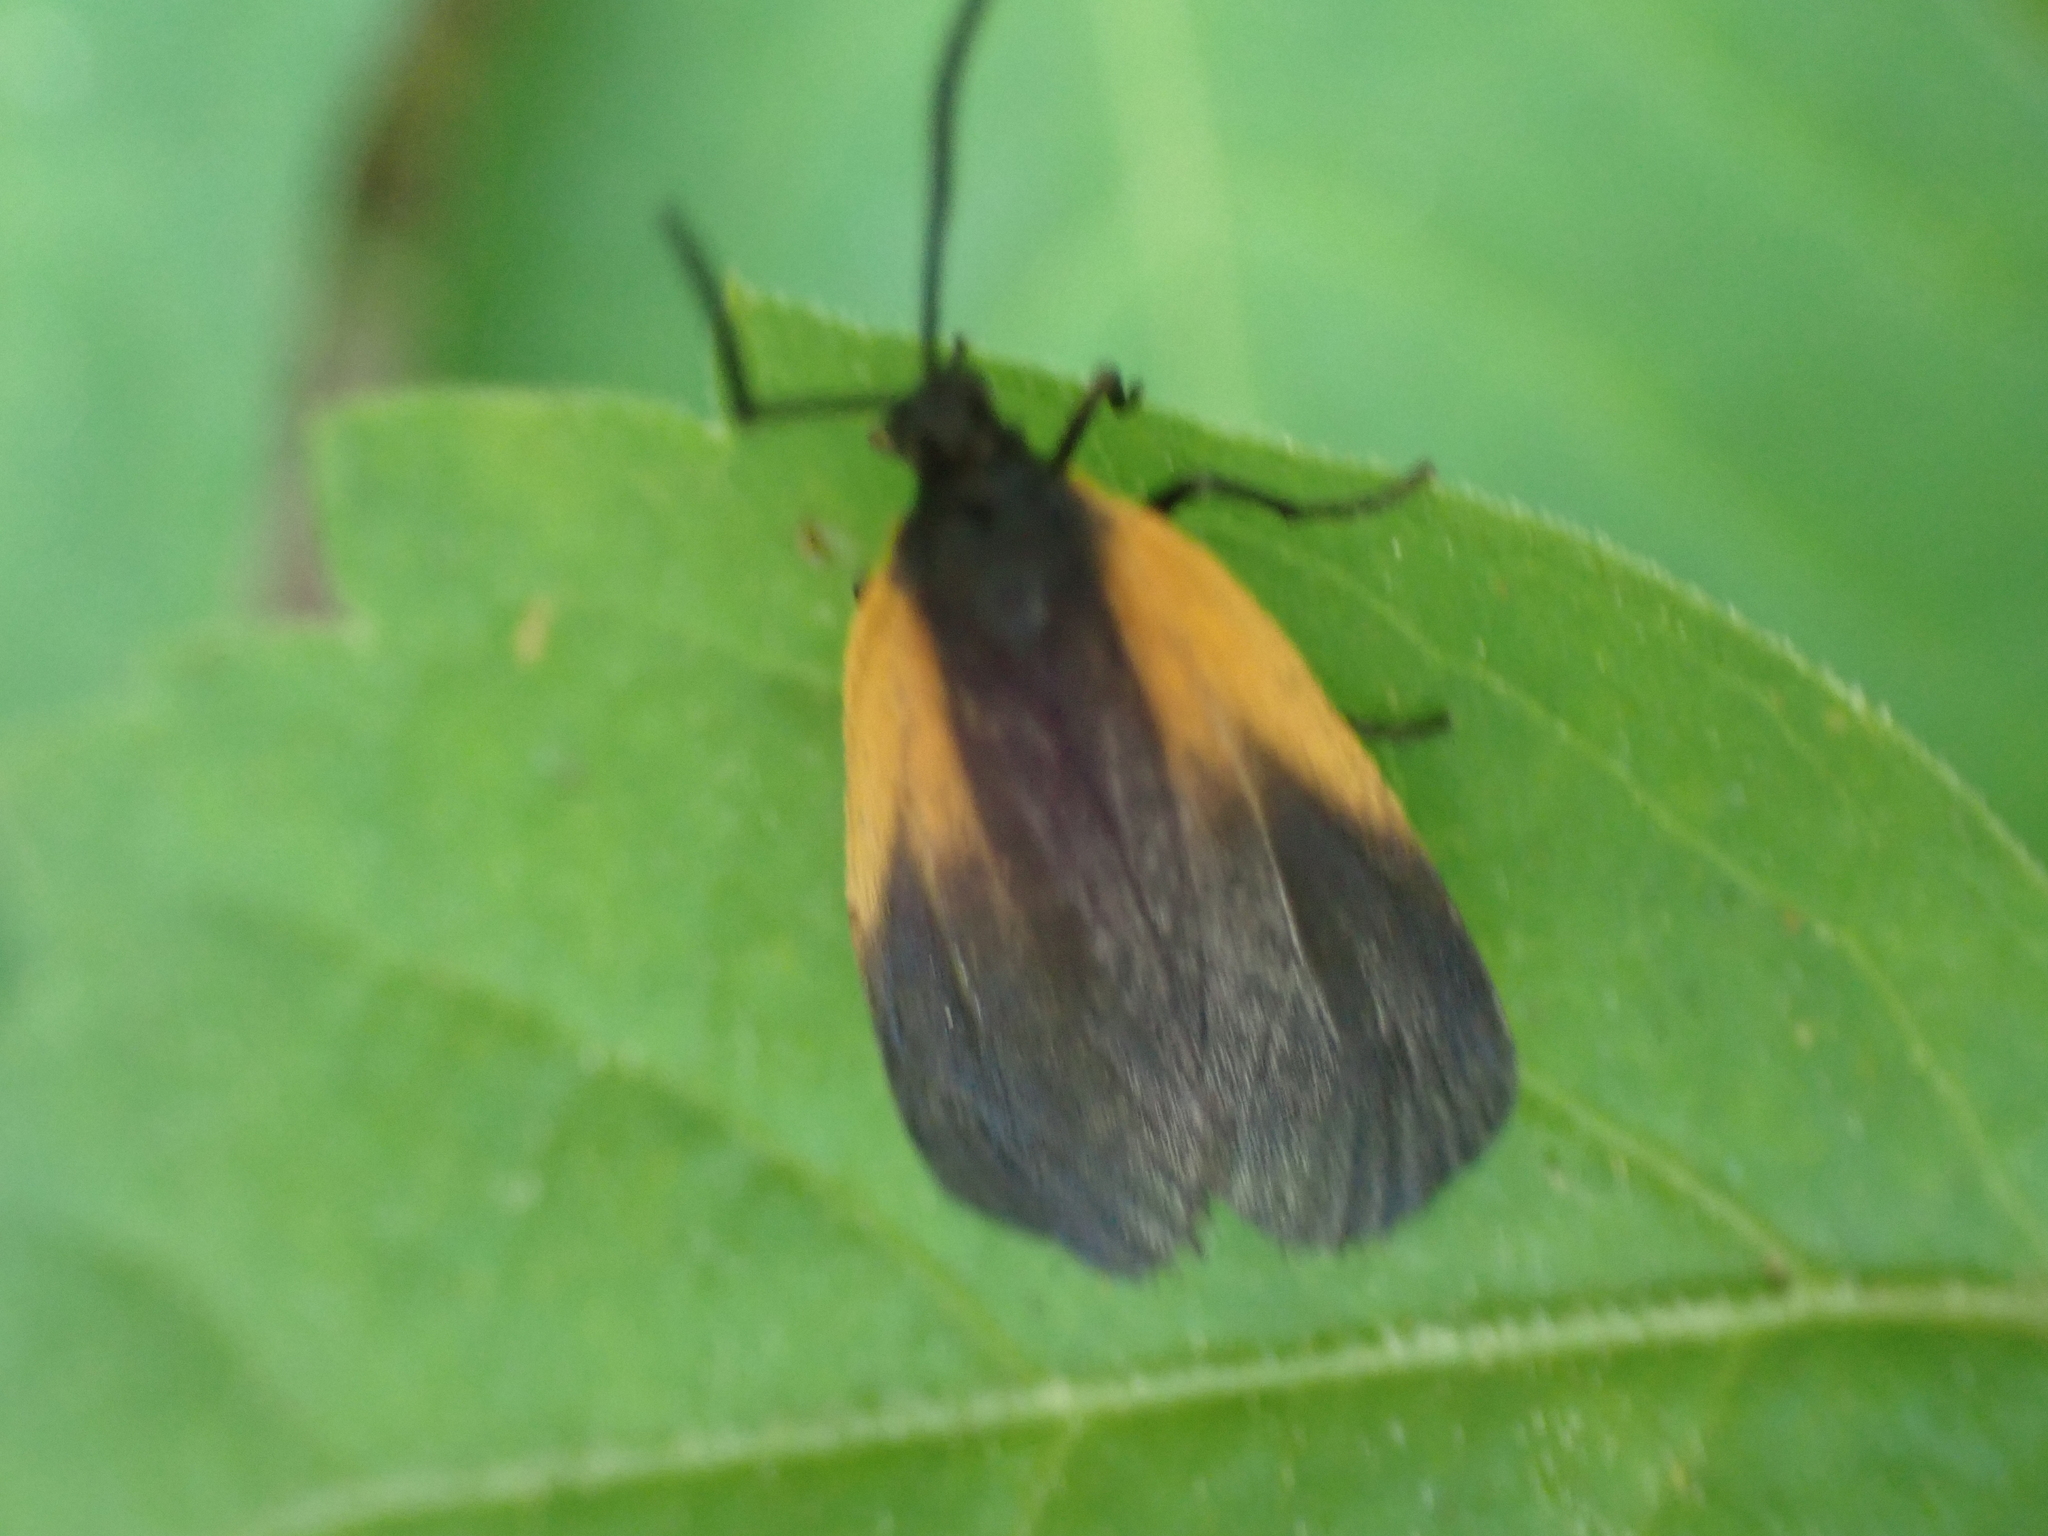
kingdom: Animalia
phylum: Arthropoda
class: Insecta
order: Lepidoptera
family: Zygaenidae
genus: Malthaca
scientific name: Malthaca dimidiata
